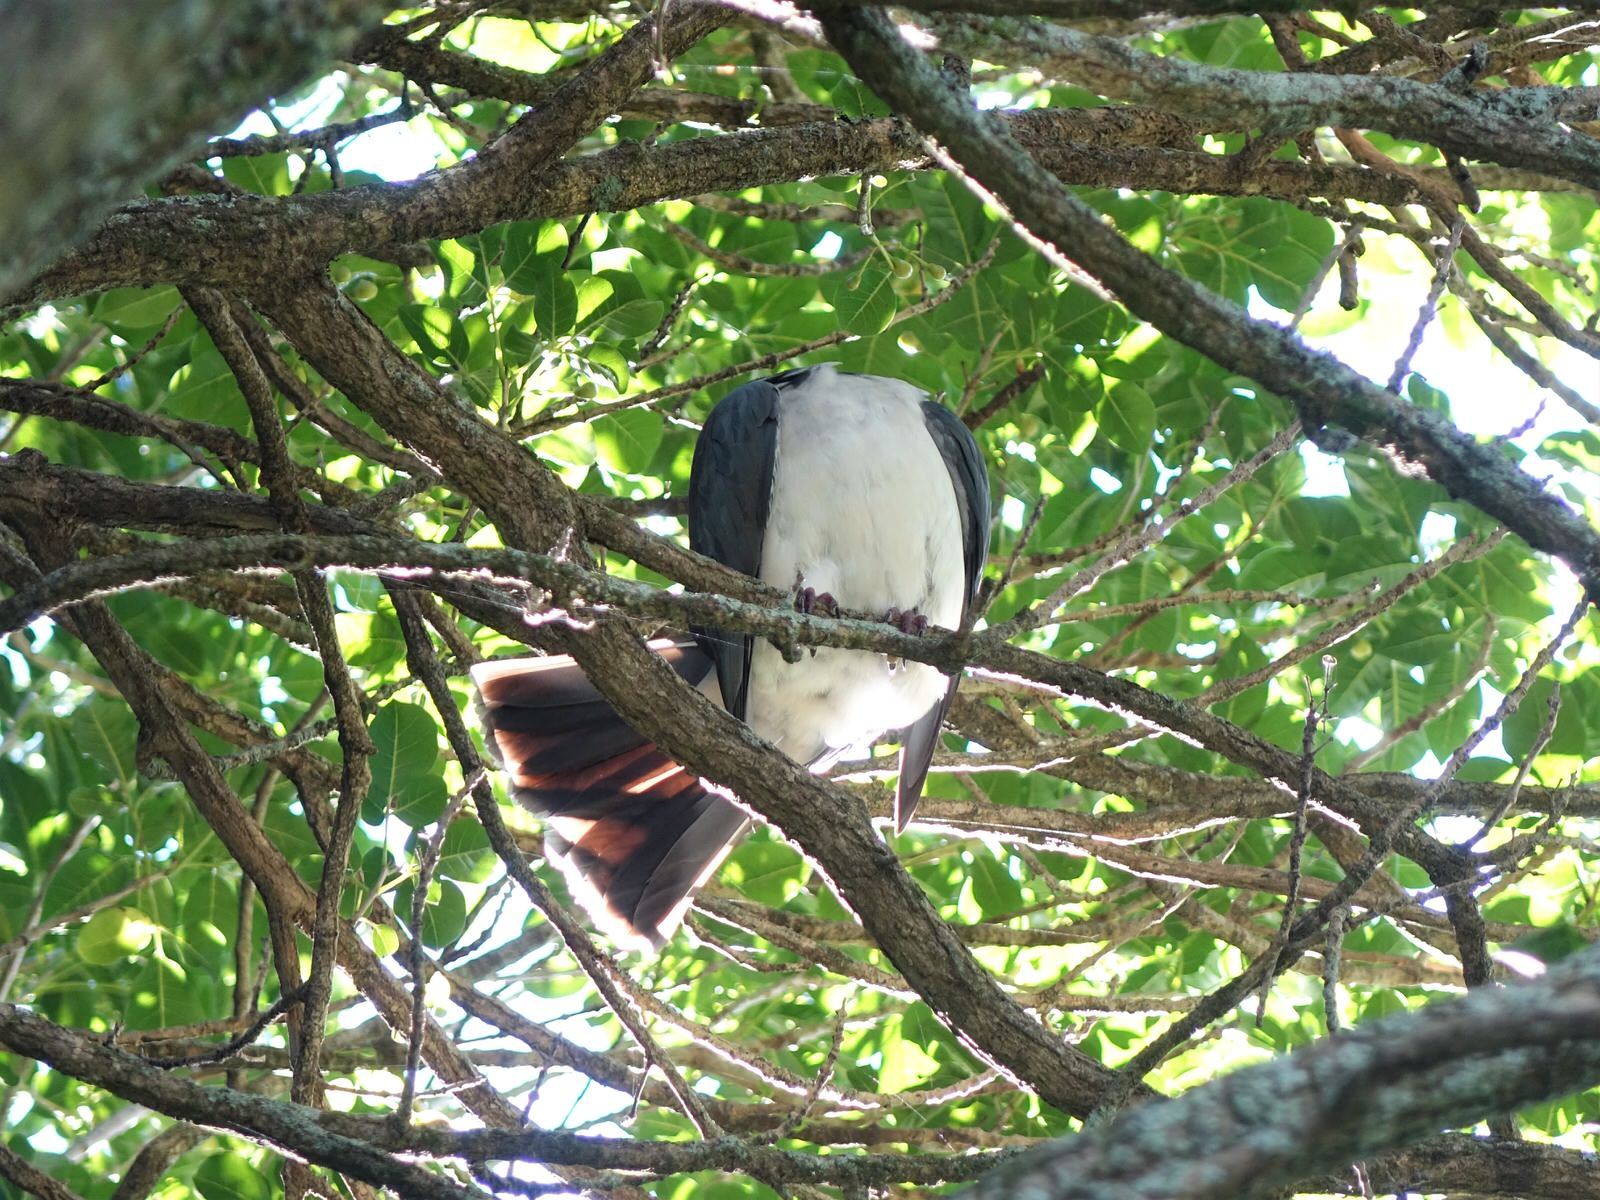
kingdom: Animalia
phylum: Chordata
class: Aves
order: Columbiformes
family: Columbidae
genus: Hemiphaga
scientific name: Hemiphaga novaeseelandiae
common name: New zealand pigeon
